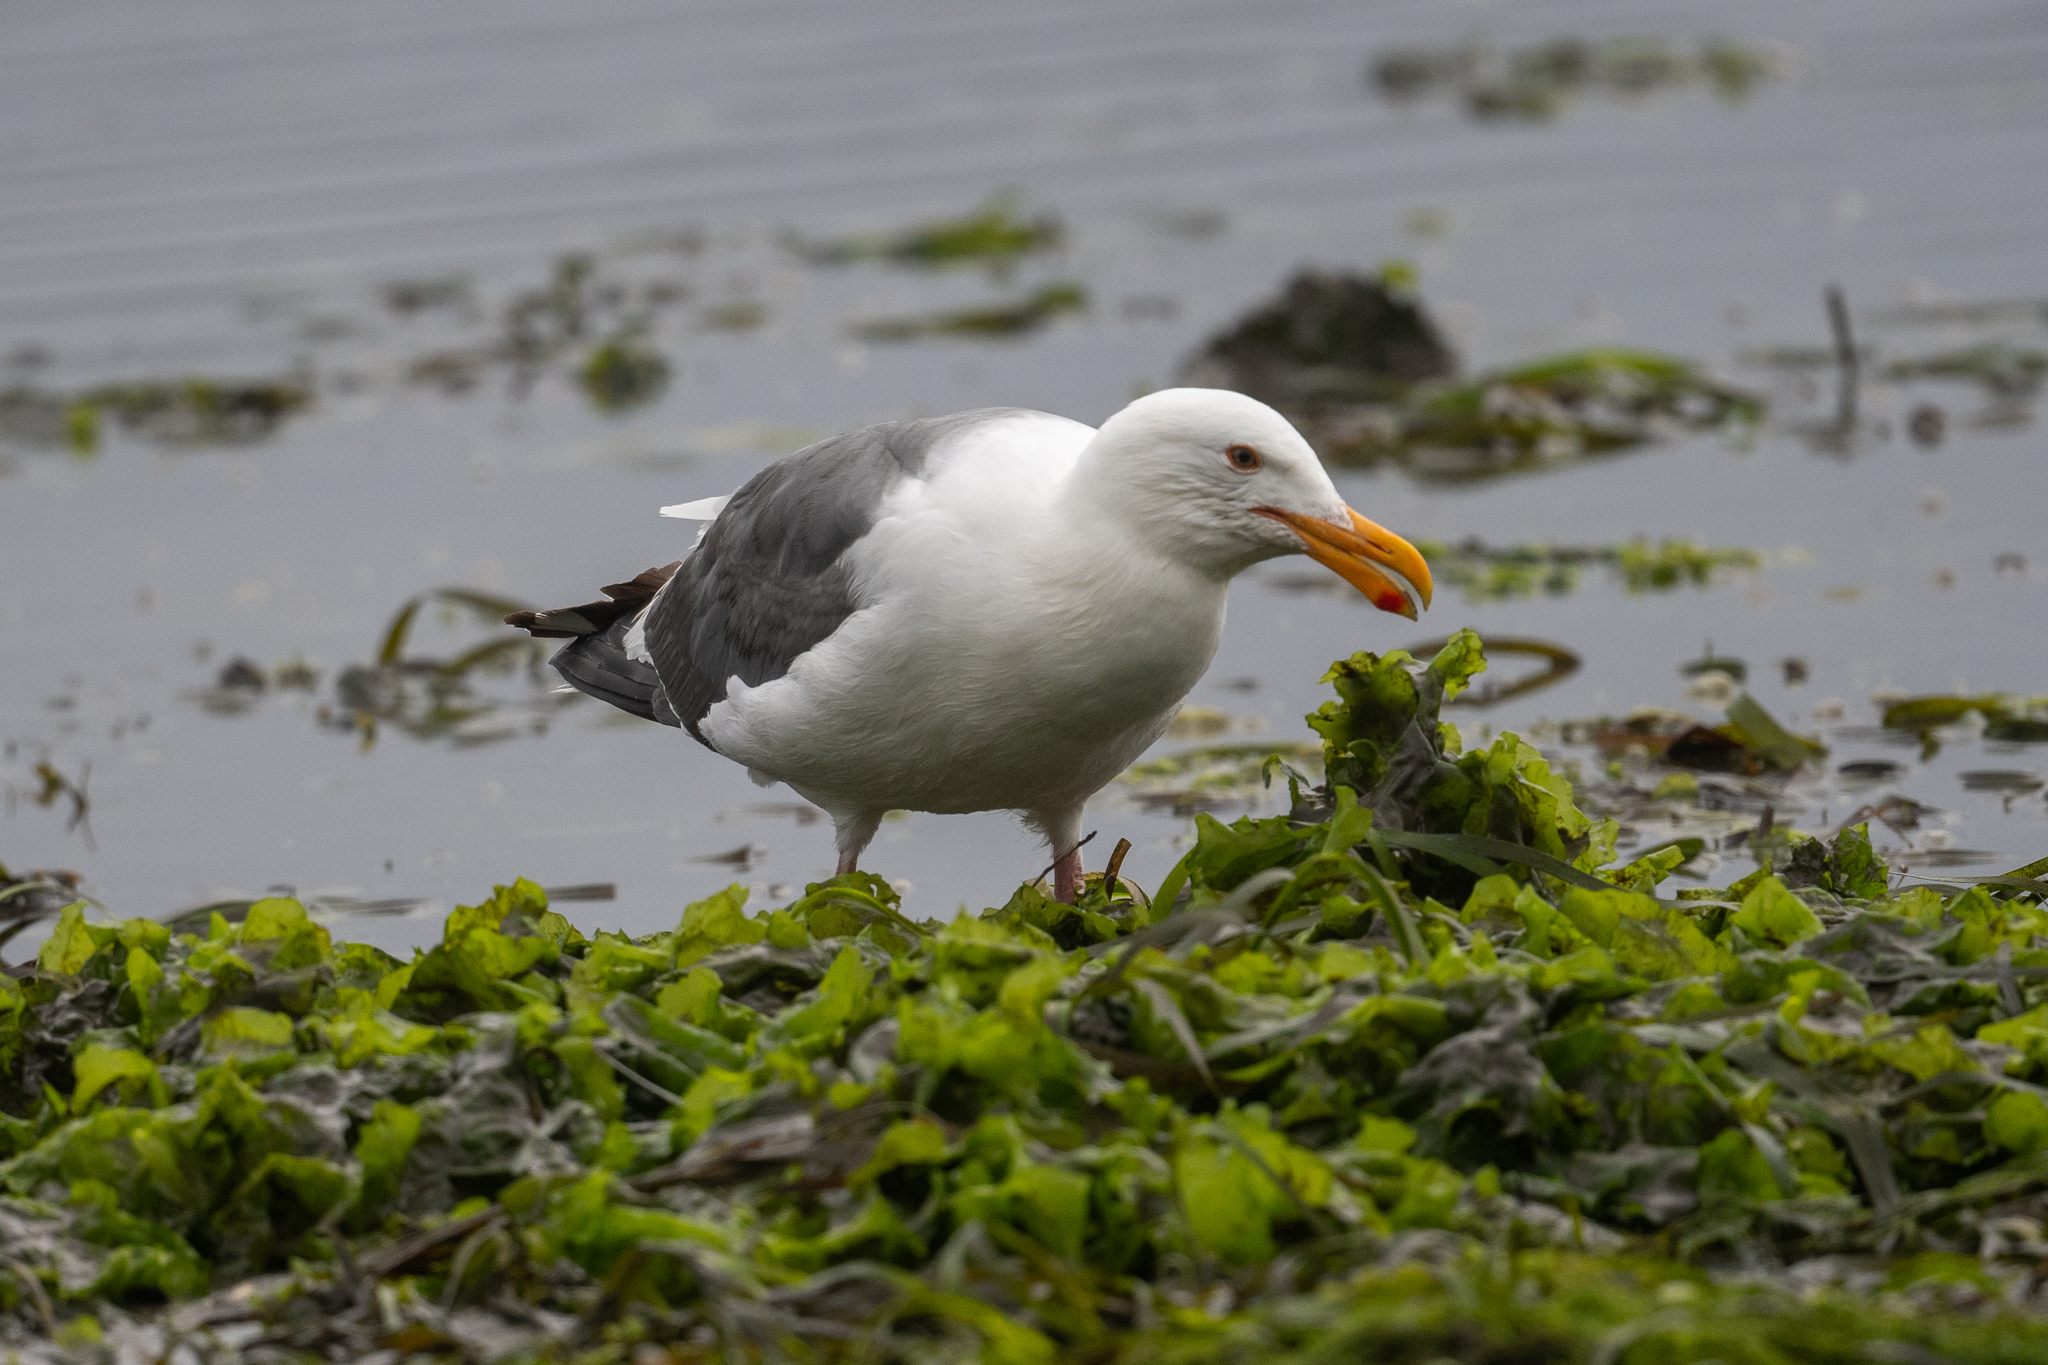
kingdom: Animalia
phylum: Chordata
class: Aves
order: Charadriiformes
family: Laridae
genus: Larus
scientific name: Larus occidentalis
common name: Western gull
